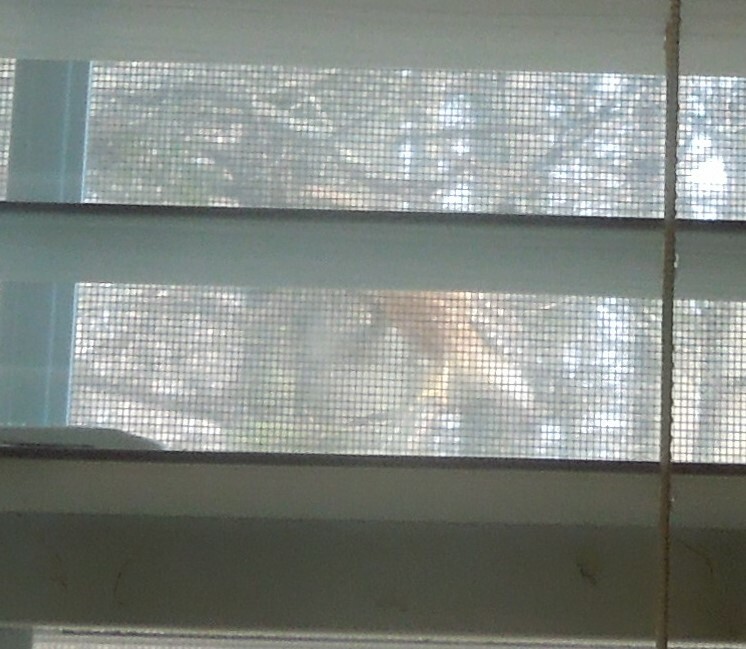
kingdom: Animalia
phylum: Chordata
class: Aves
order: Accipitriformes
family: Accipitridae
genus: Buteo
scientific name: Buteo lineatus
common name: Red-shouldered hawk
